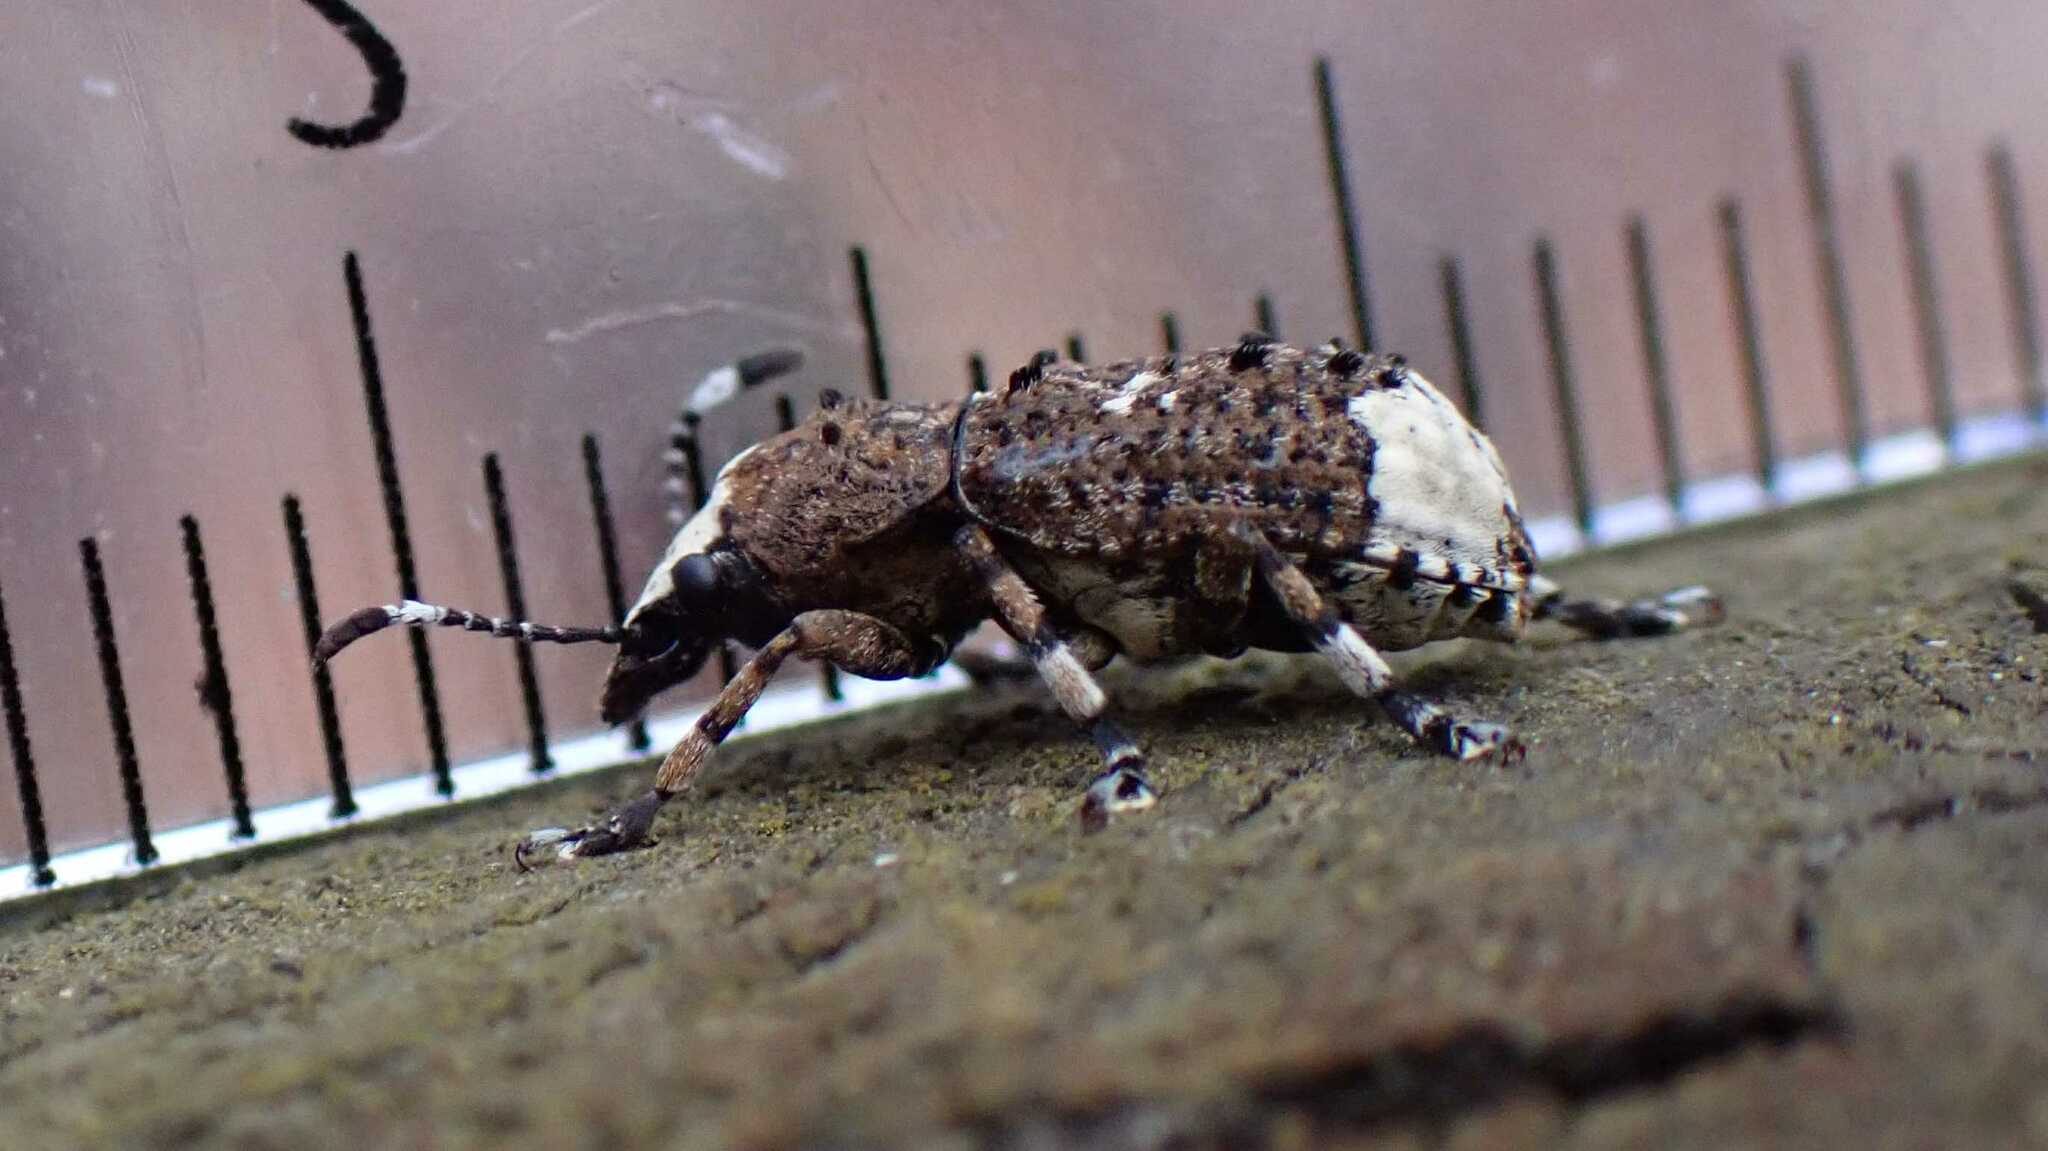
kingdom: Animalia
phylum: Arthropoda
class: Insecta
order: Coleoptera
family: Anthribidae
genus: Platystomos
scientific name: Platystomos albinus
